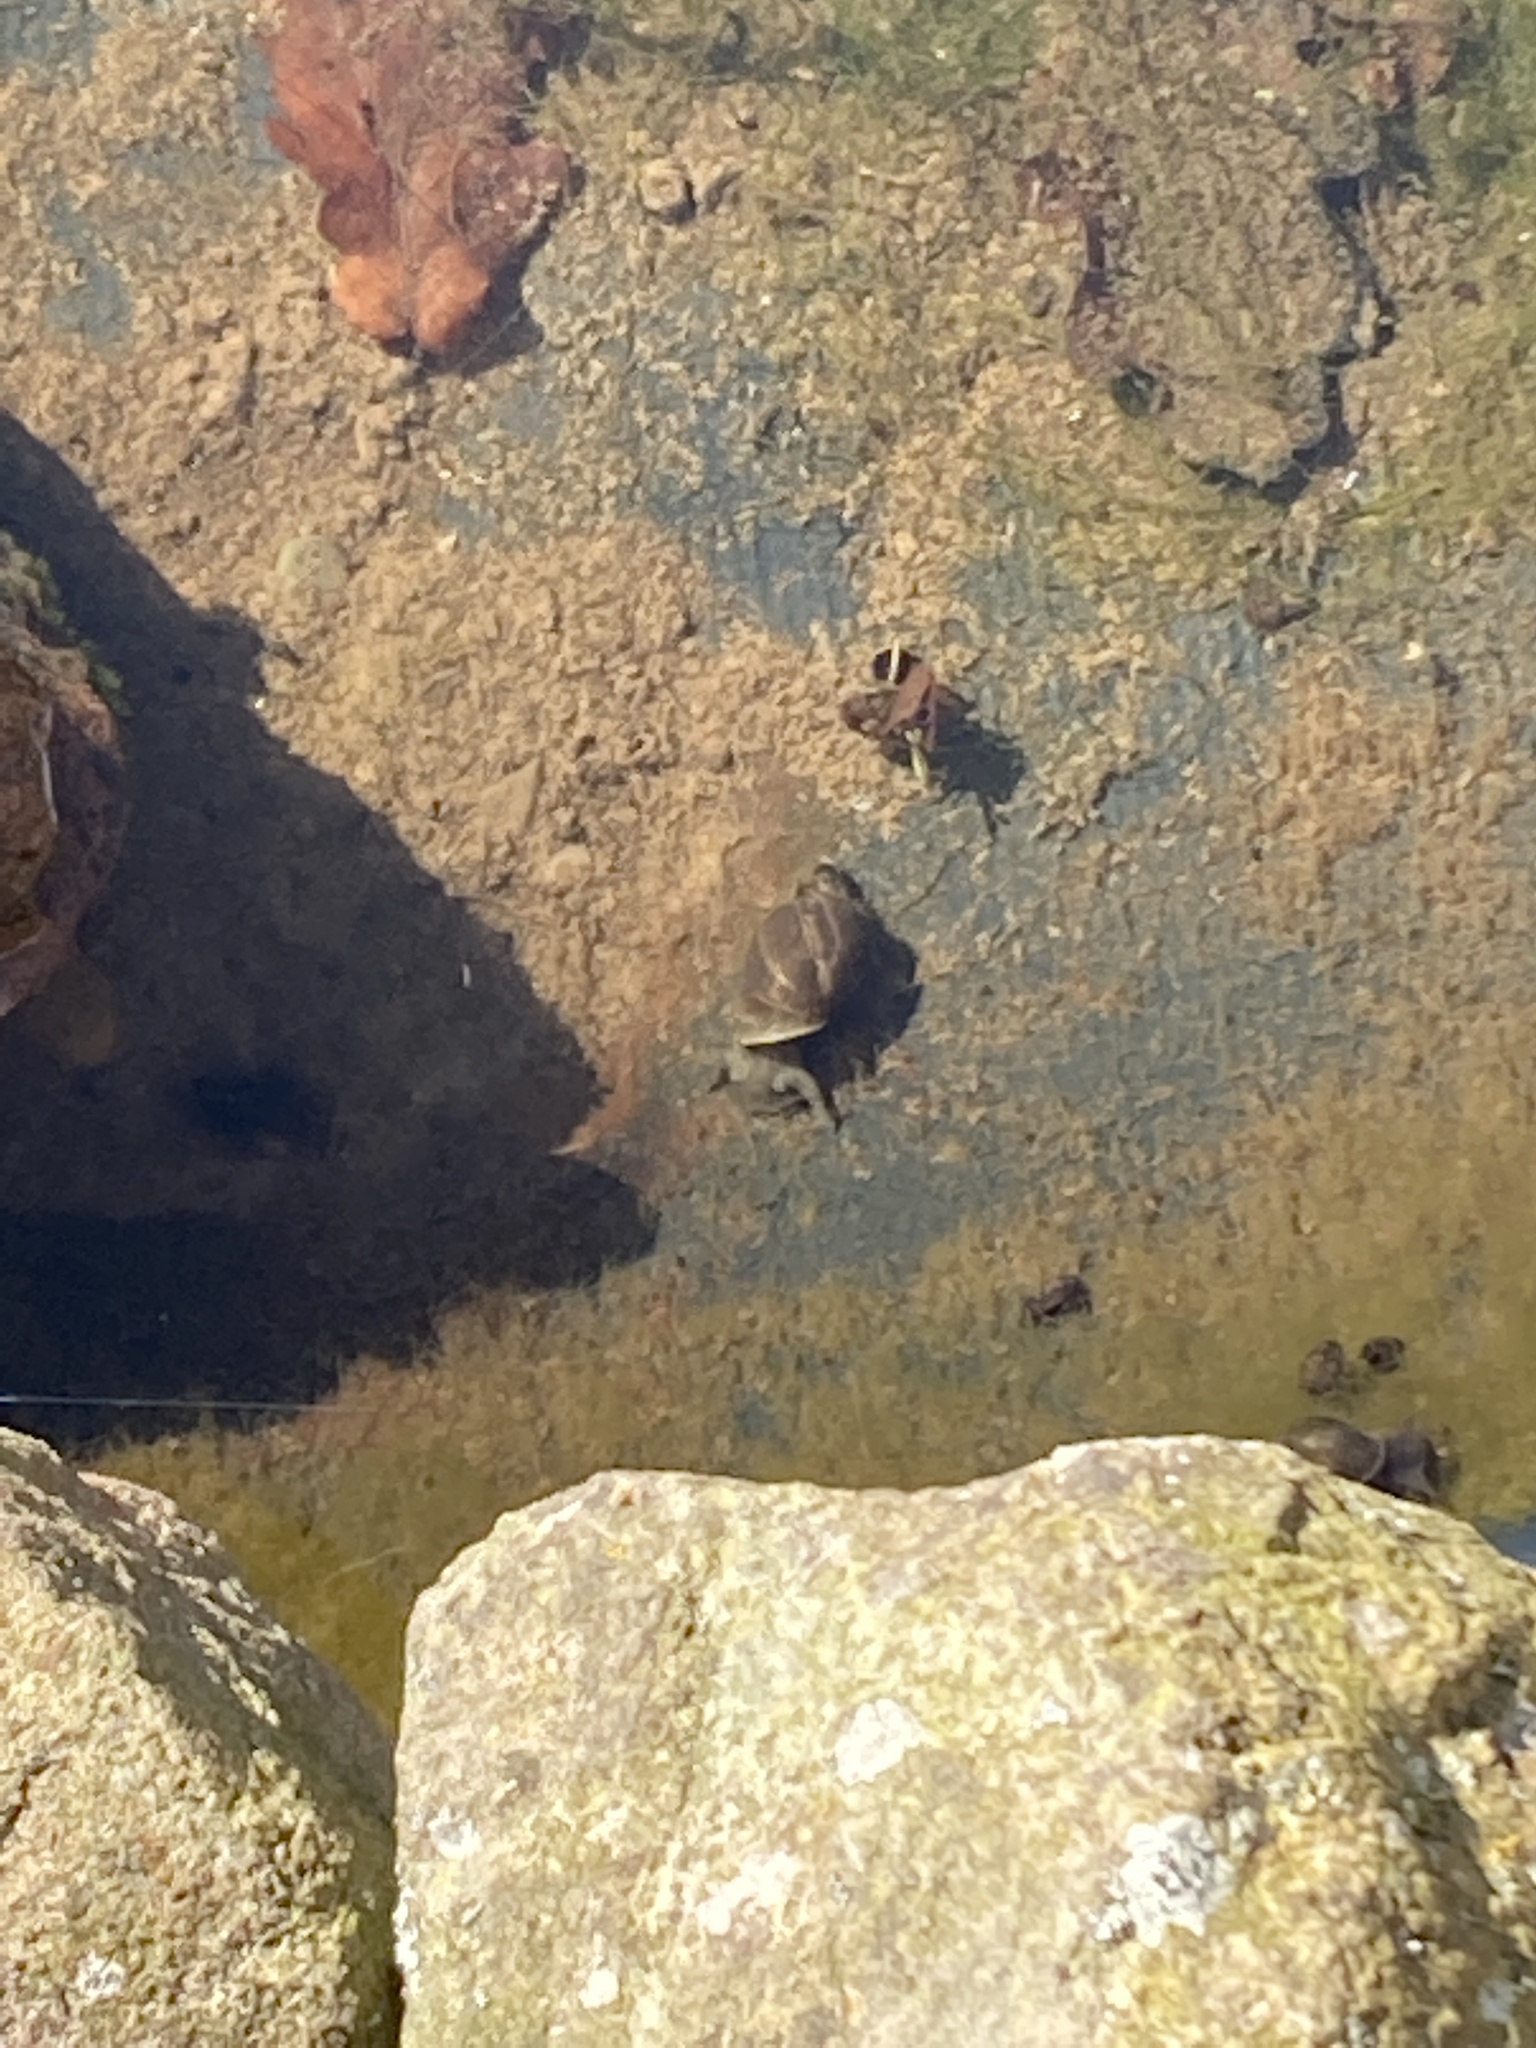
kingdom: Animalia
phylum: Mollusca
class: Gastropoda
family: Lymnaeidae
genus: Lymnaea
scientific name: Lymnaea stagnalis
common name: Great pond snail
